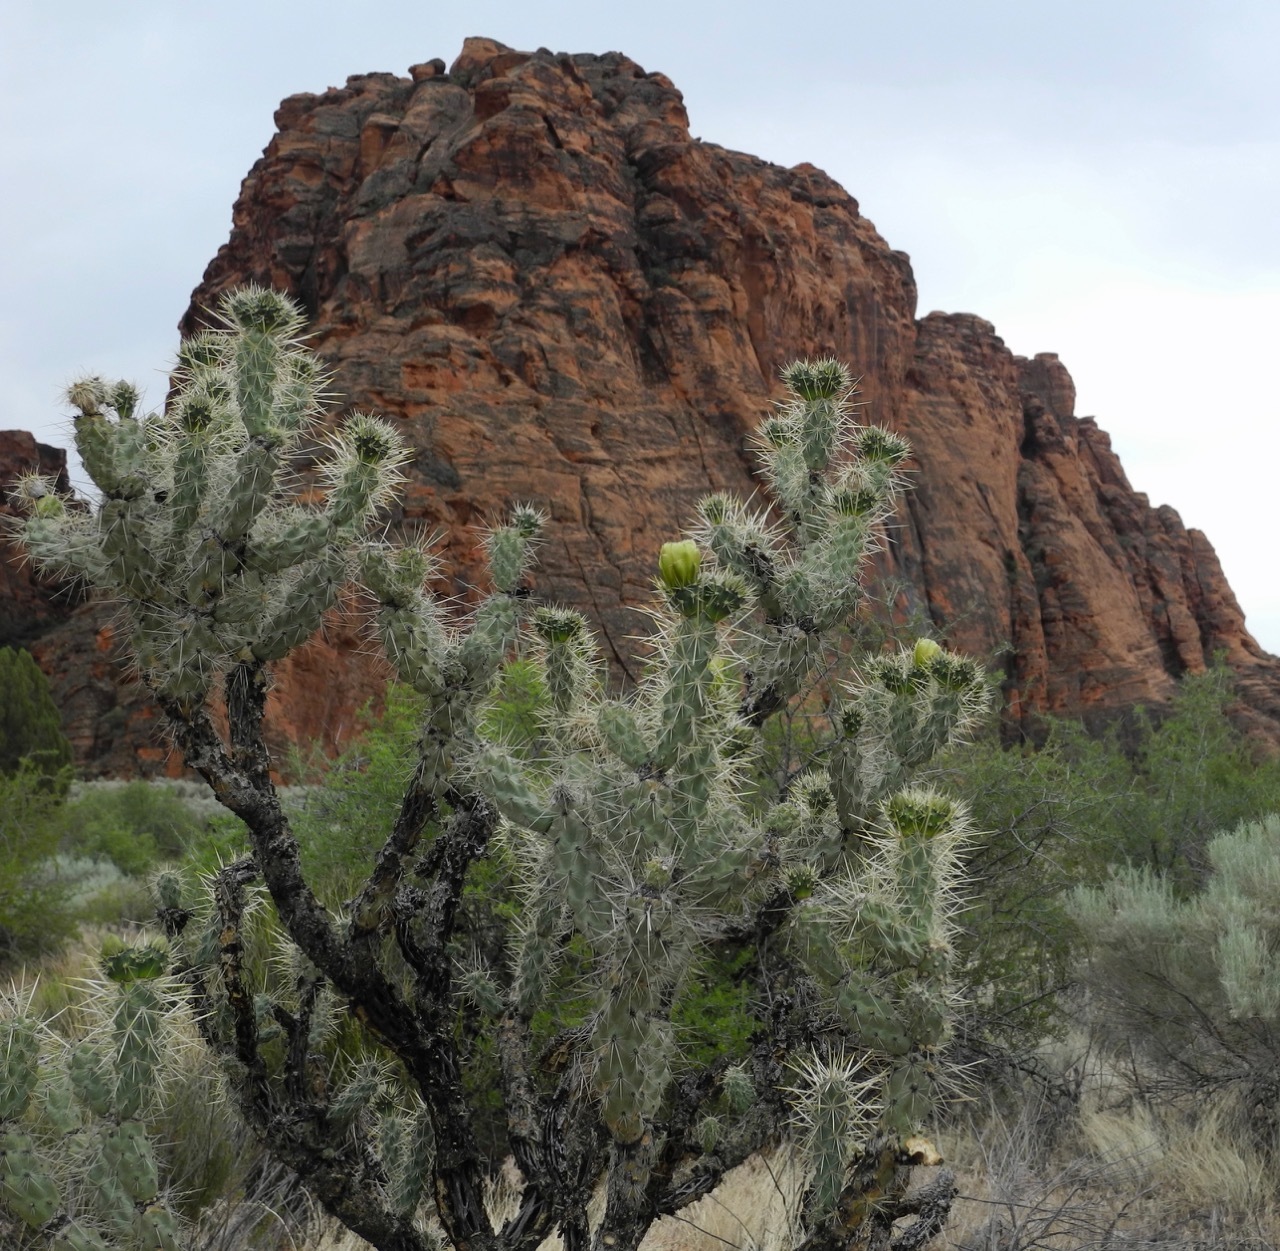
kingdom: Plantae
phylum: Tracheophyta
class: Magnoliopsida
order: Caryophyllales
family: Cactaceae
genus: Cylindropuntia
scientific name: Cylindropuntia echinocarpa
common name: Ground cholla
